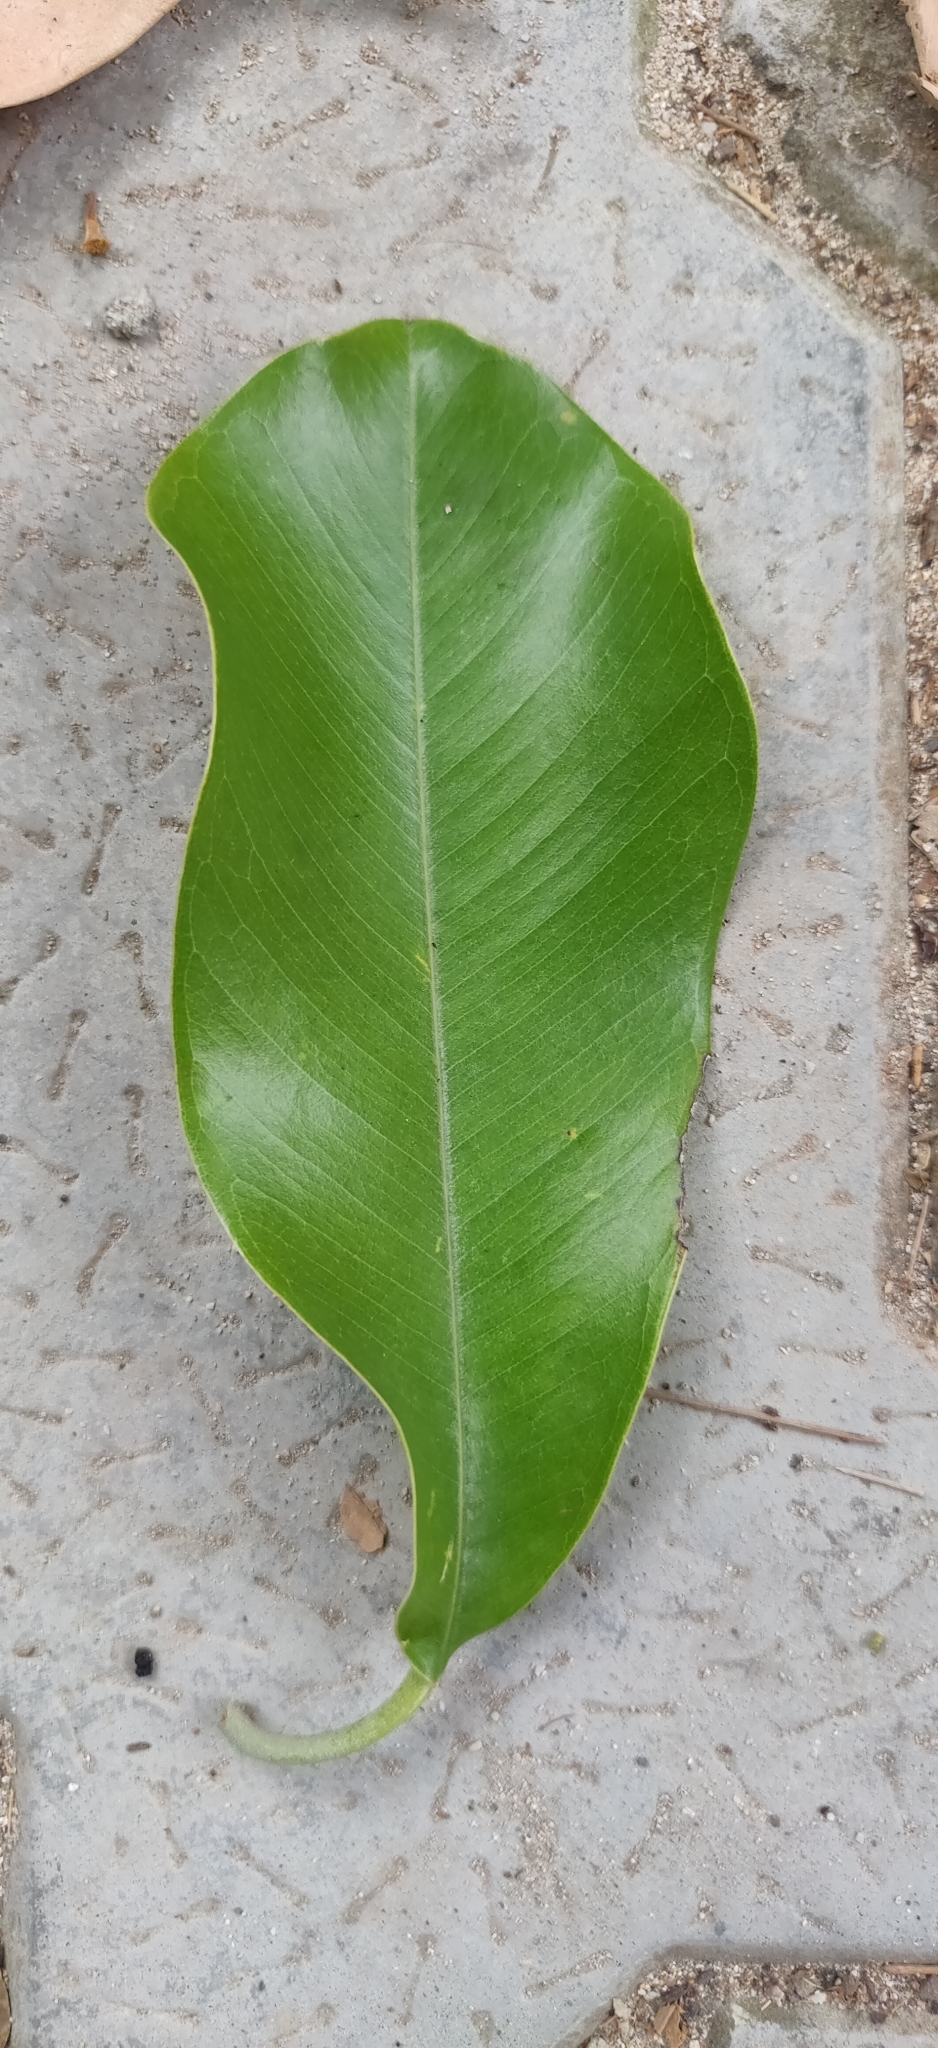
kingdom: Plantae
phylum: Tracheophyta
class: Magnoliopsida
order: Ericales
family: Sapotaceae
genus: Manilkara
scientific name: Manilkara littoralis
